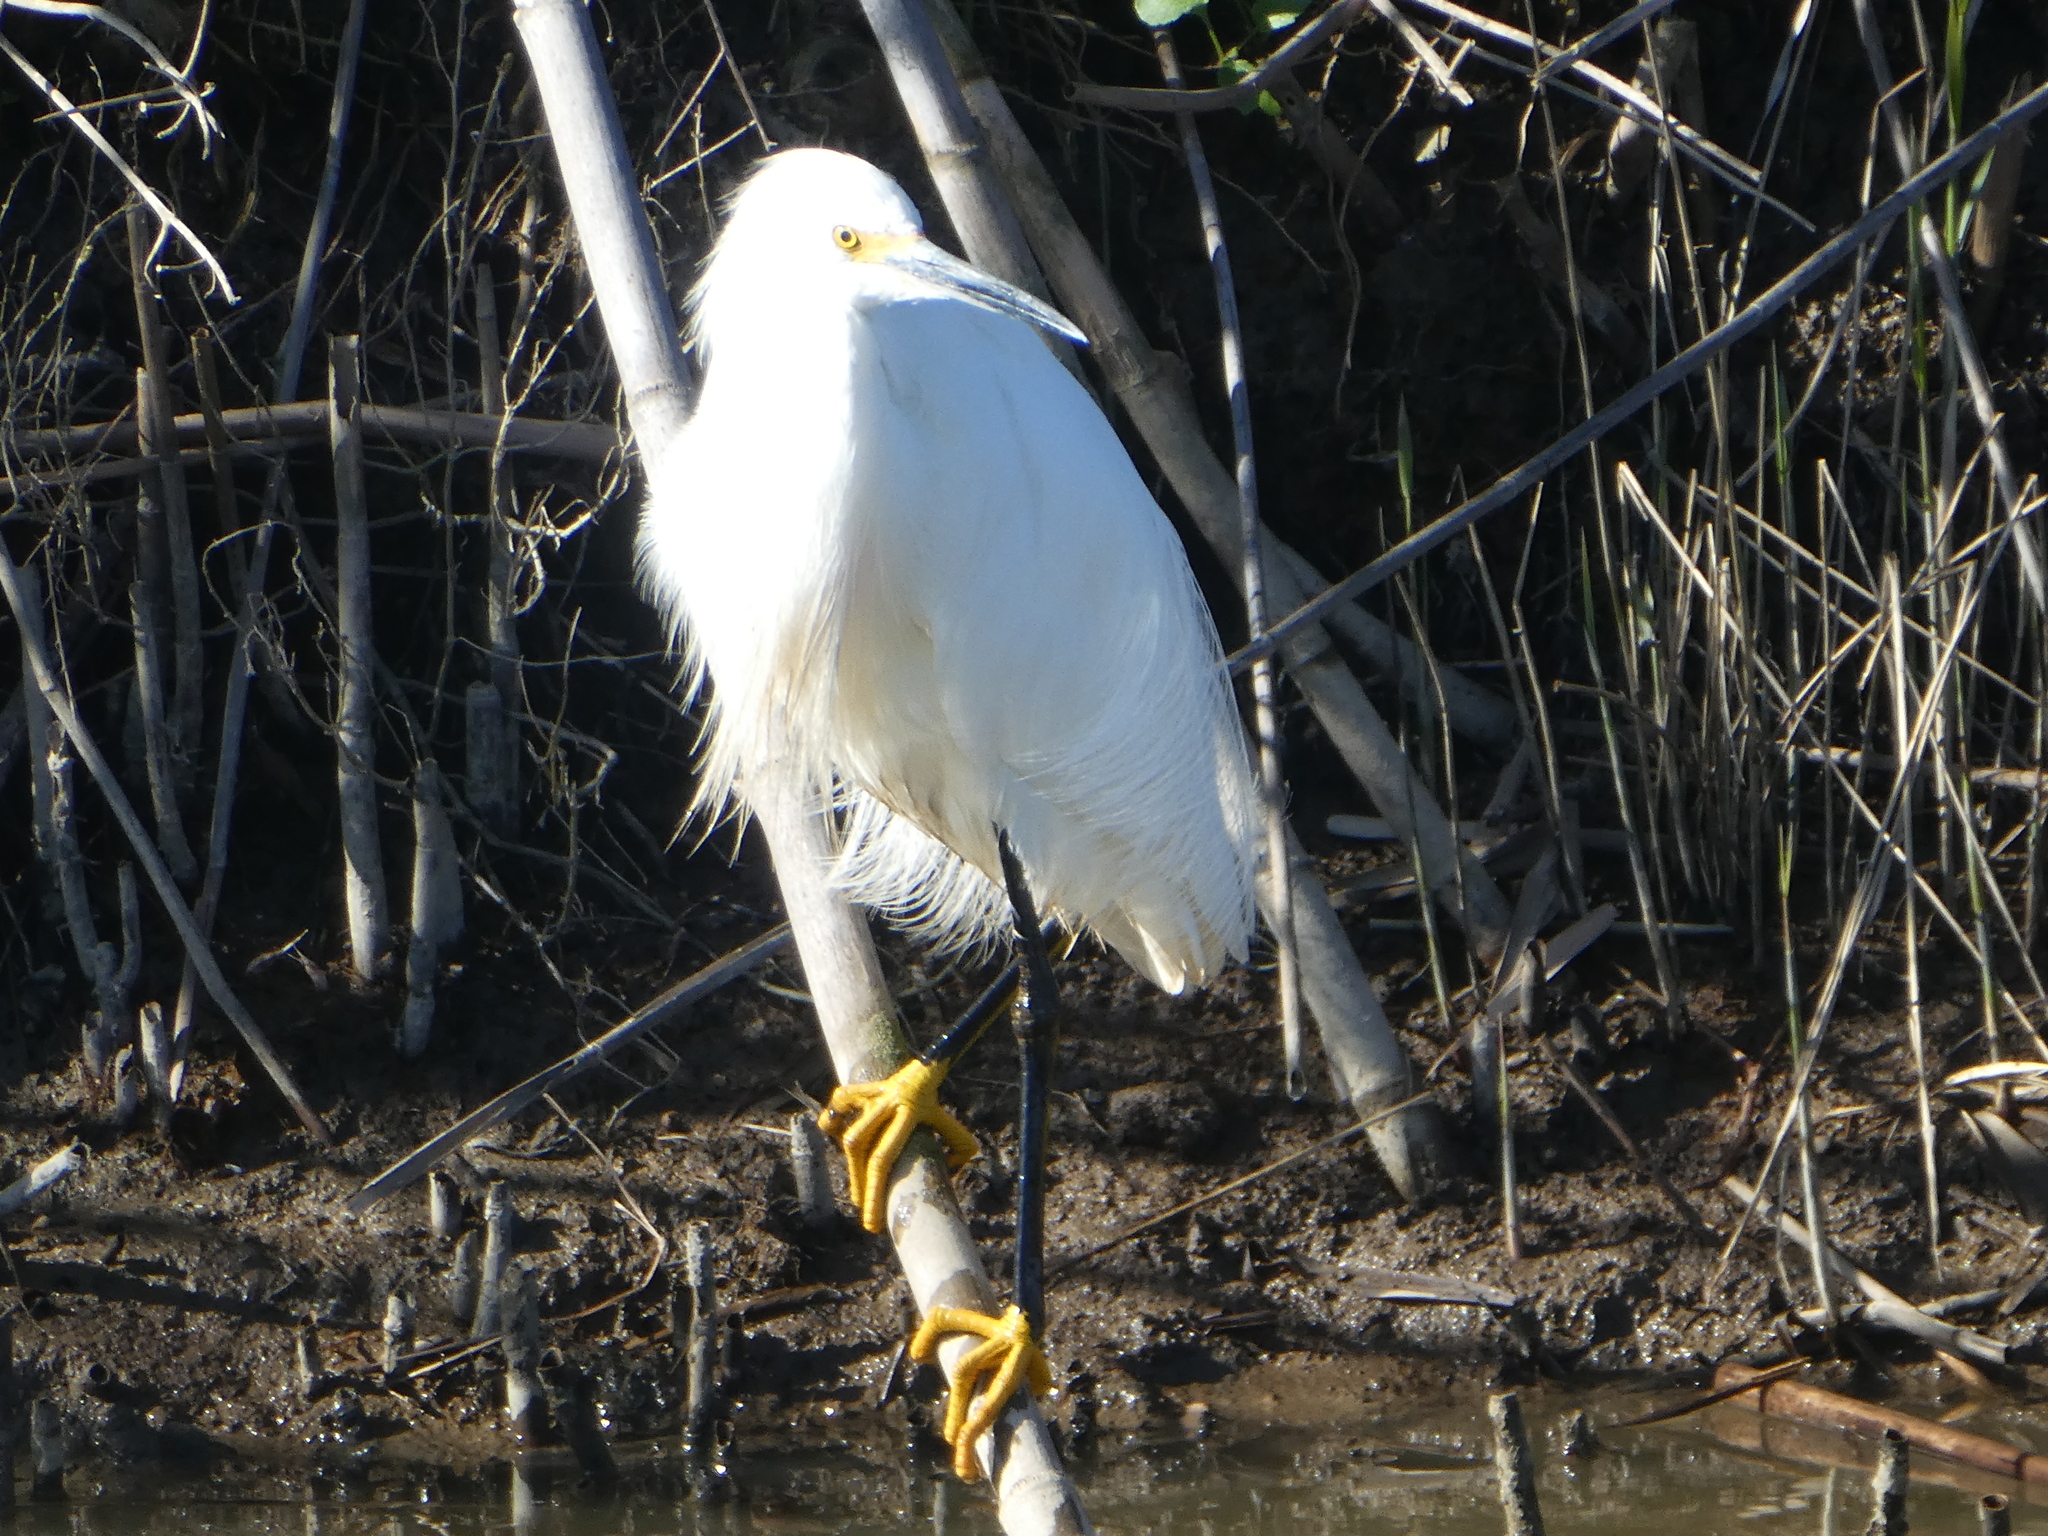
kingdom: Animalia
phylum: Chordata
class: Aves
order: Pelecaniformes
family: Ardeidae
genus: Egretta
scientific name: Egretta thula
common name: Snowy egret
